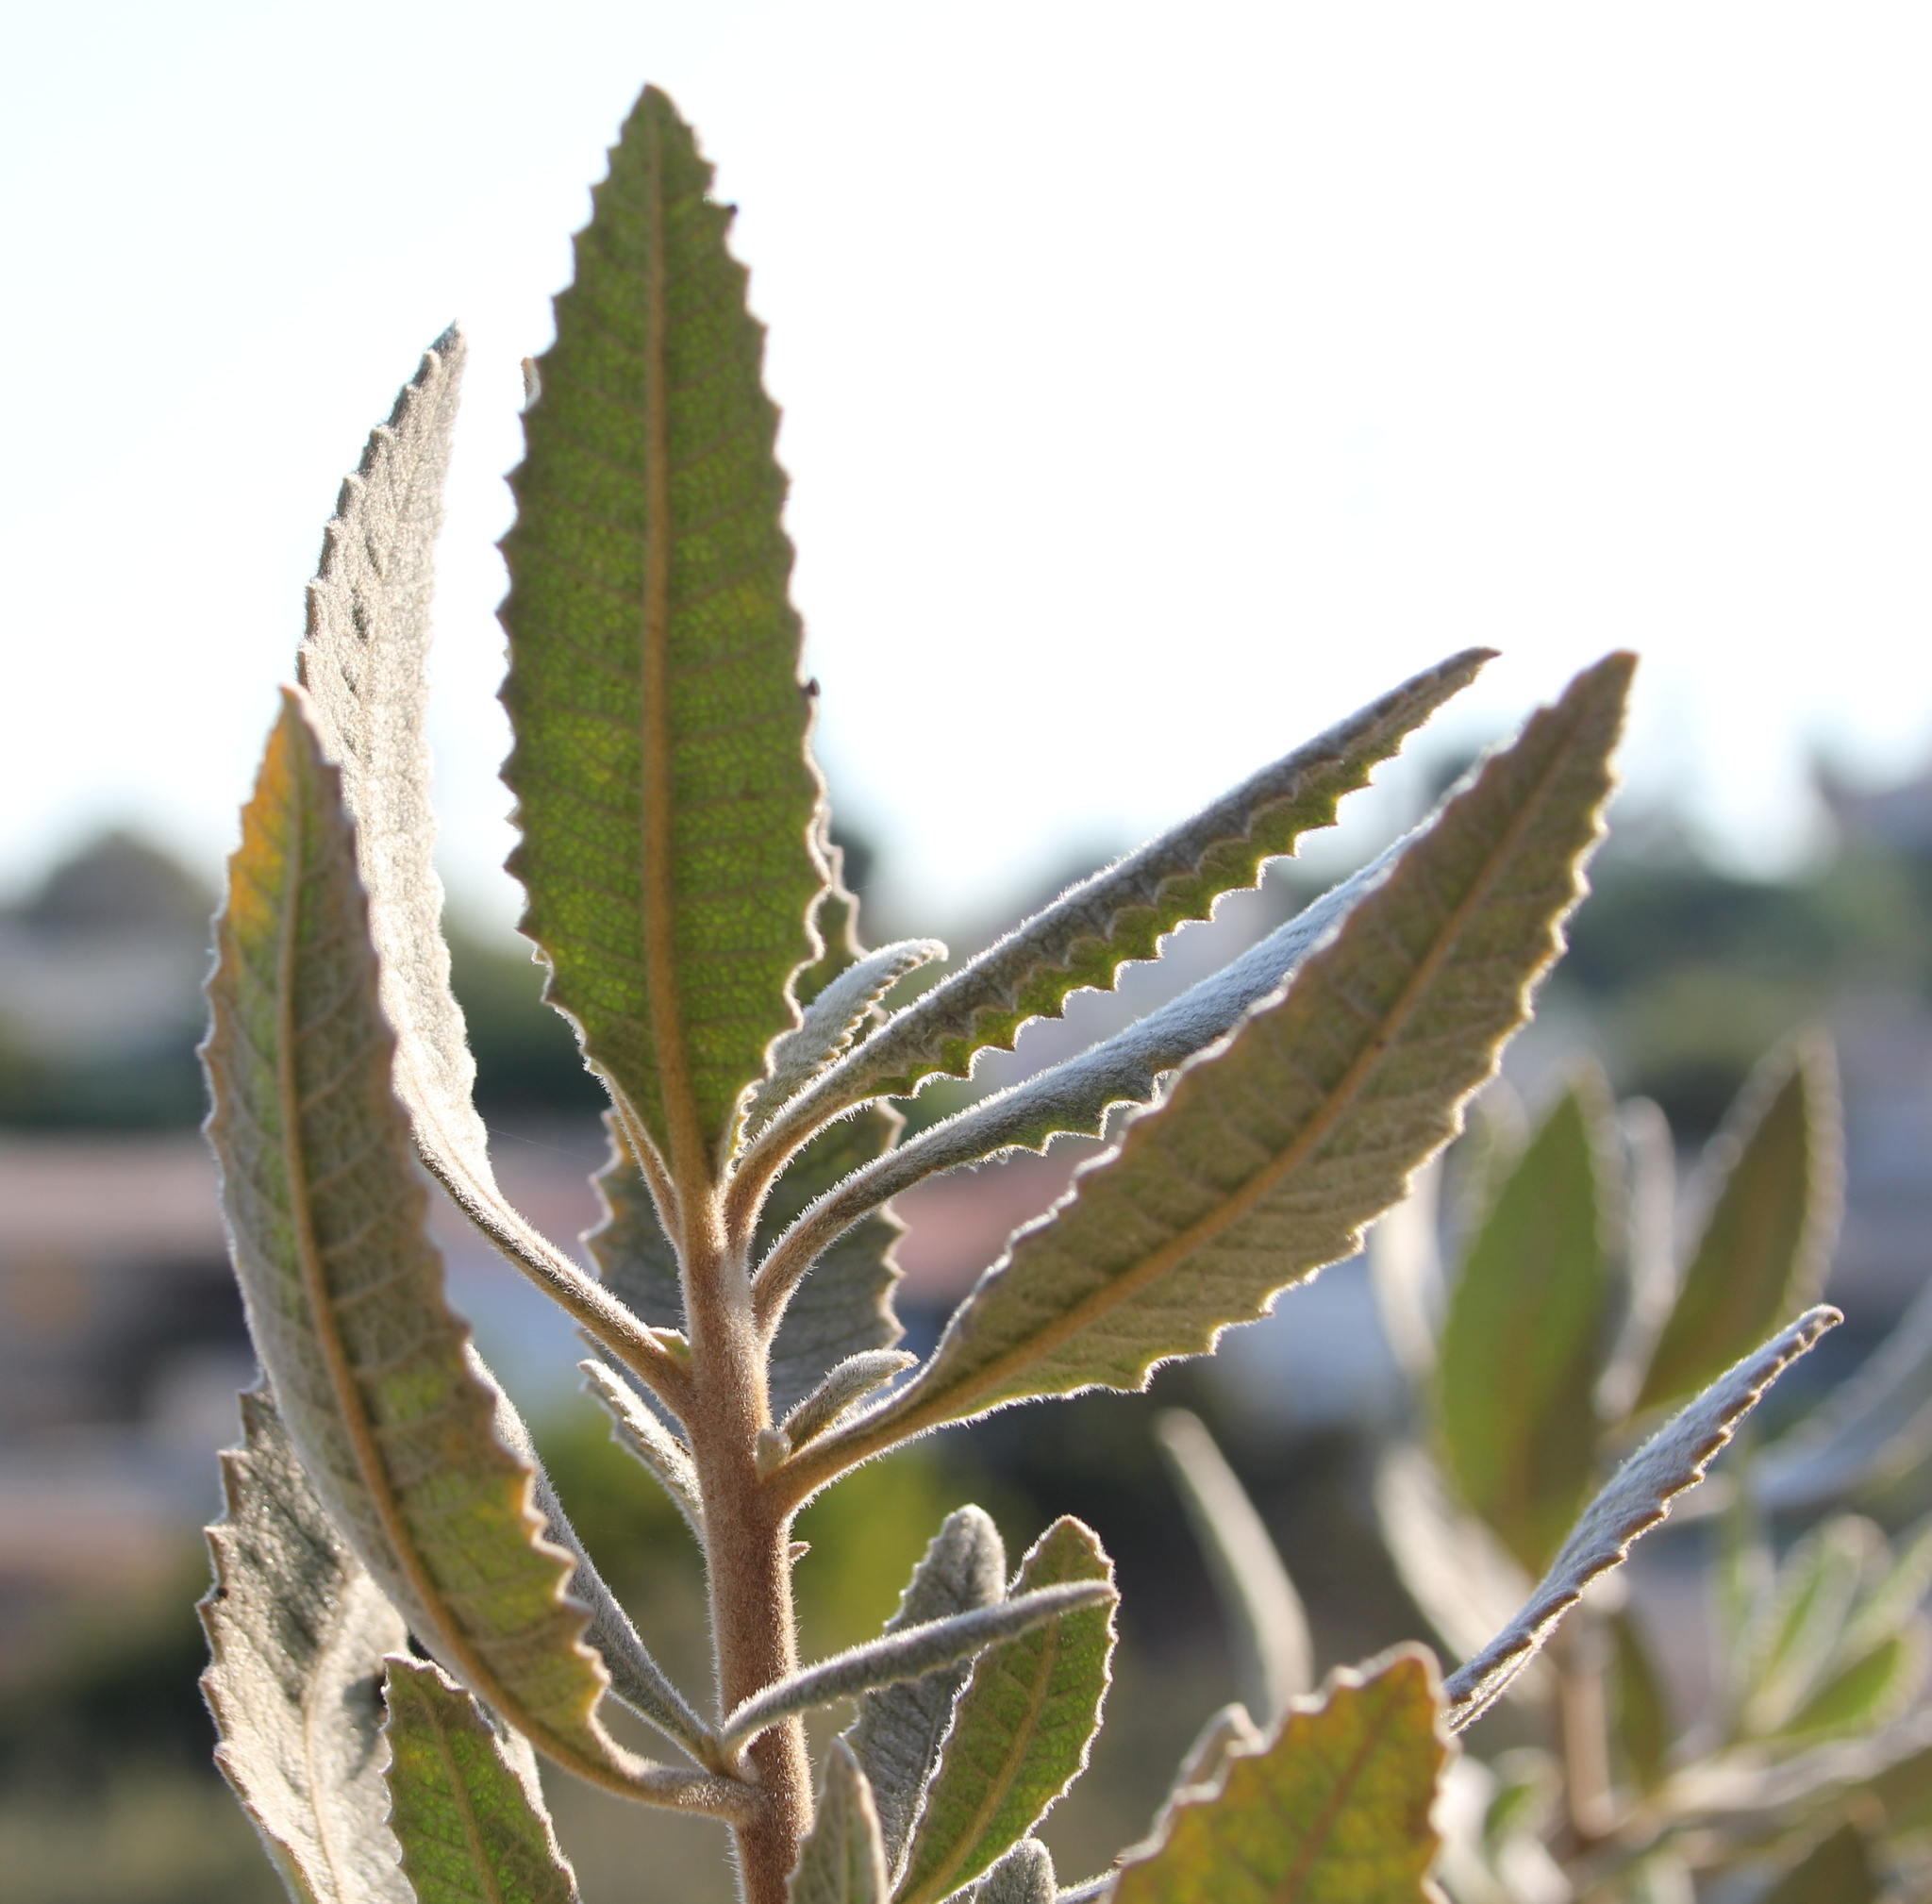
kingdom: Plantae
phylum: Tracheophyta
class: Magnoliopsida
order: Boraginales
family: Namaceae
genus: Eriodictyon
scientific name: Eriodictyon crassifolium
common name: Thick-leaf yerba-santa
